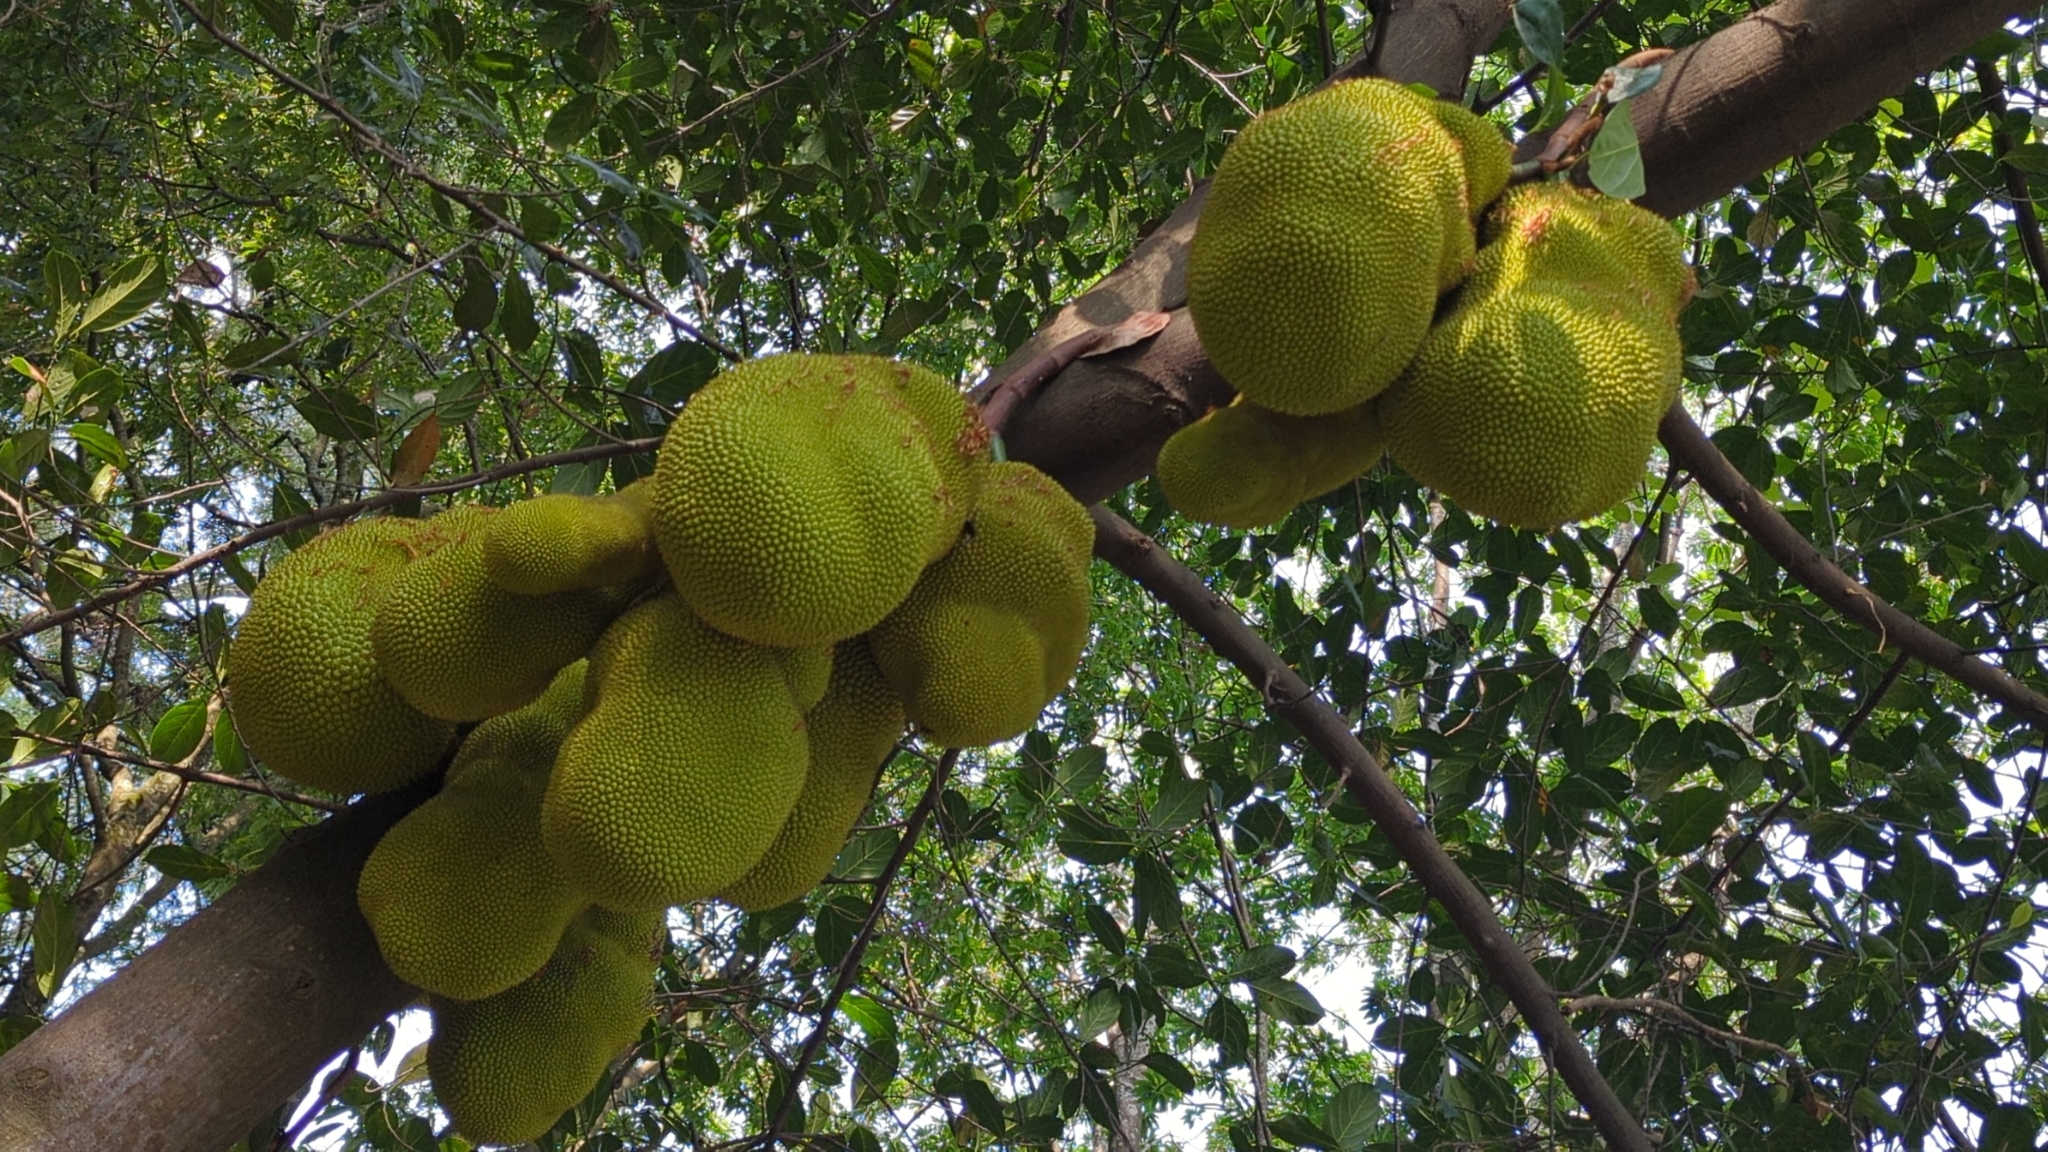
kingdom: Plantae
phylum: Tracheophyta
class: Magnoliopsida
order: Rosales
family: Moraceae
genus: Artocarpus
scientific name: Artocarpus heterophyllus
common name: Jackfruit
